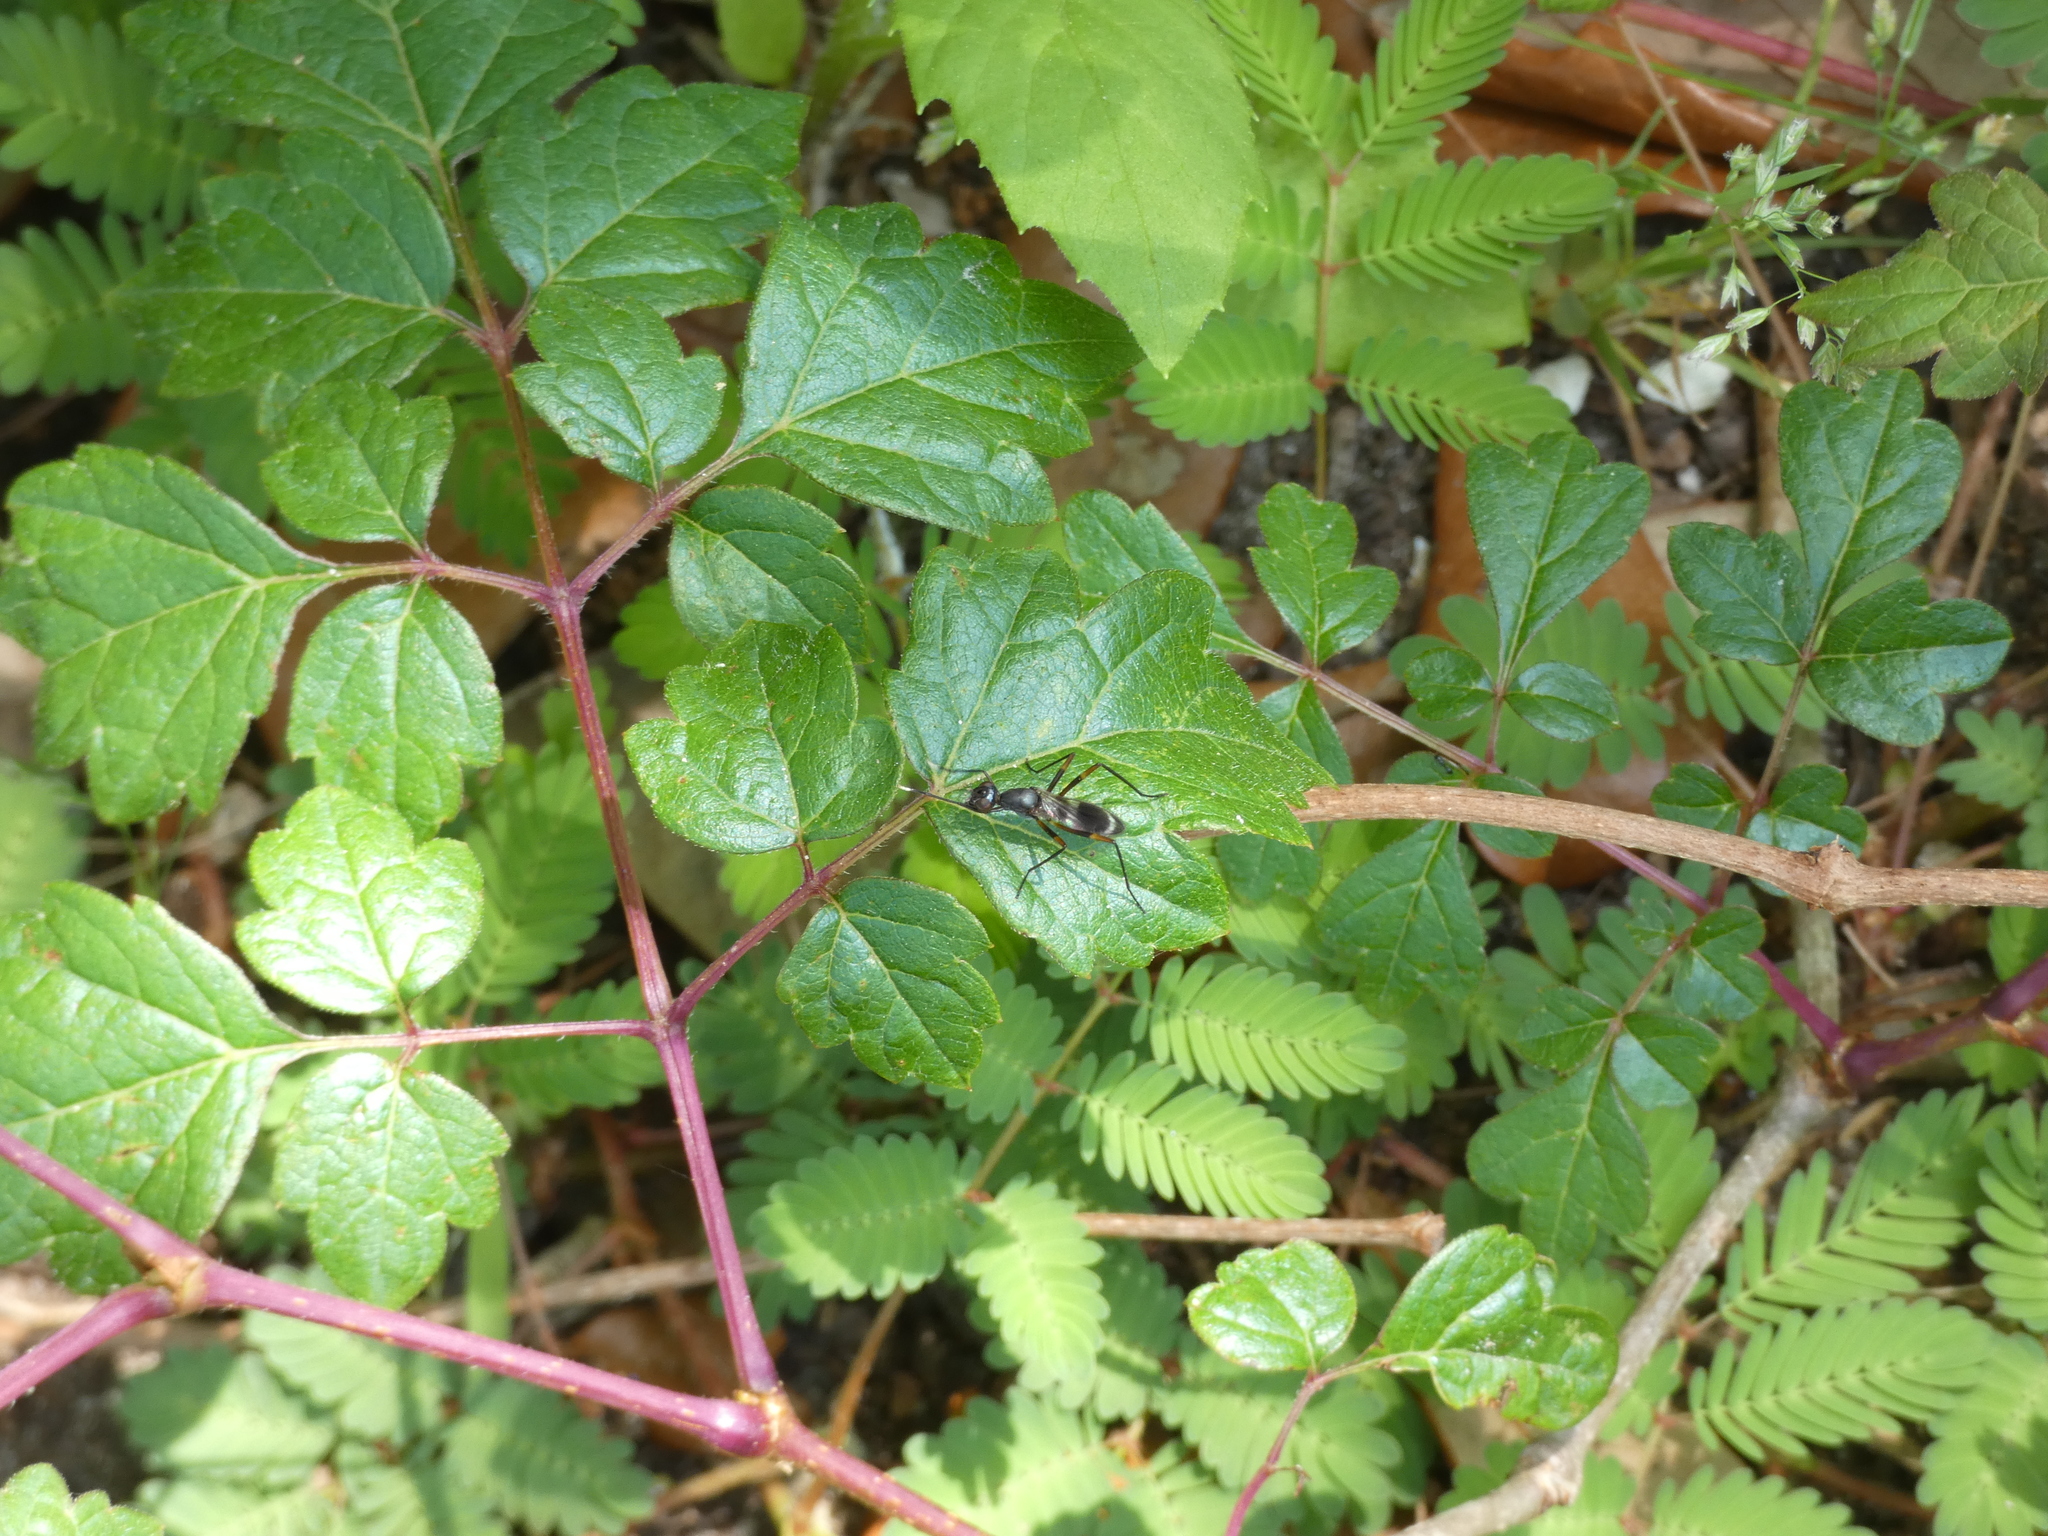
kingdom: Animalia
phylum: Arthropoda
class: Insecta
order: Diptera
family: Micropezidae
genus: Taeniaptera
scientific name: Taeniaptera trivittata
